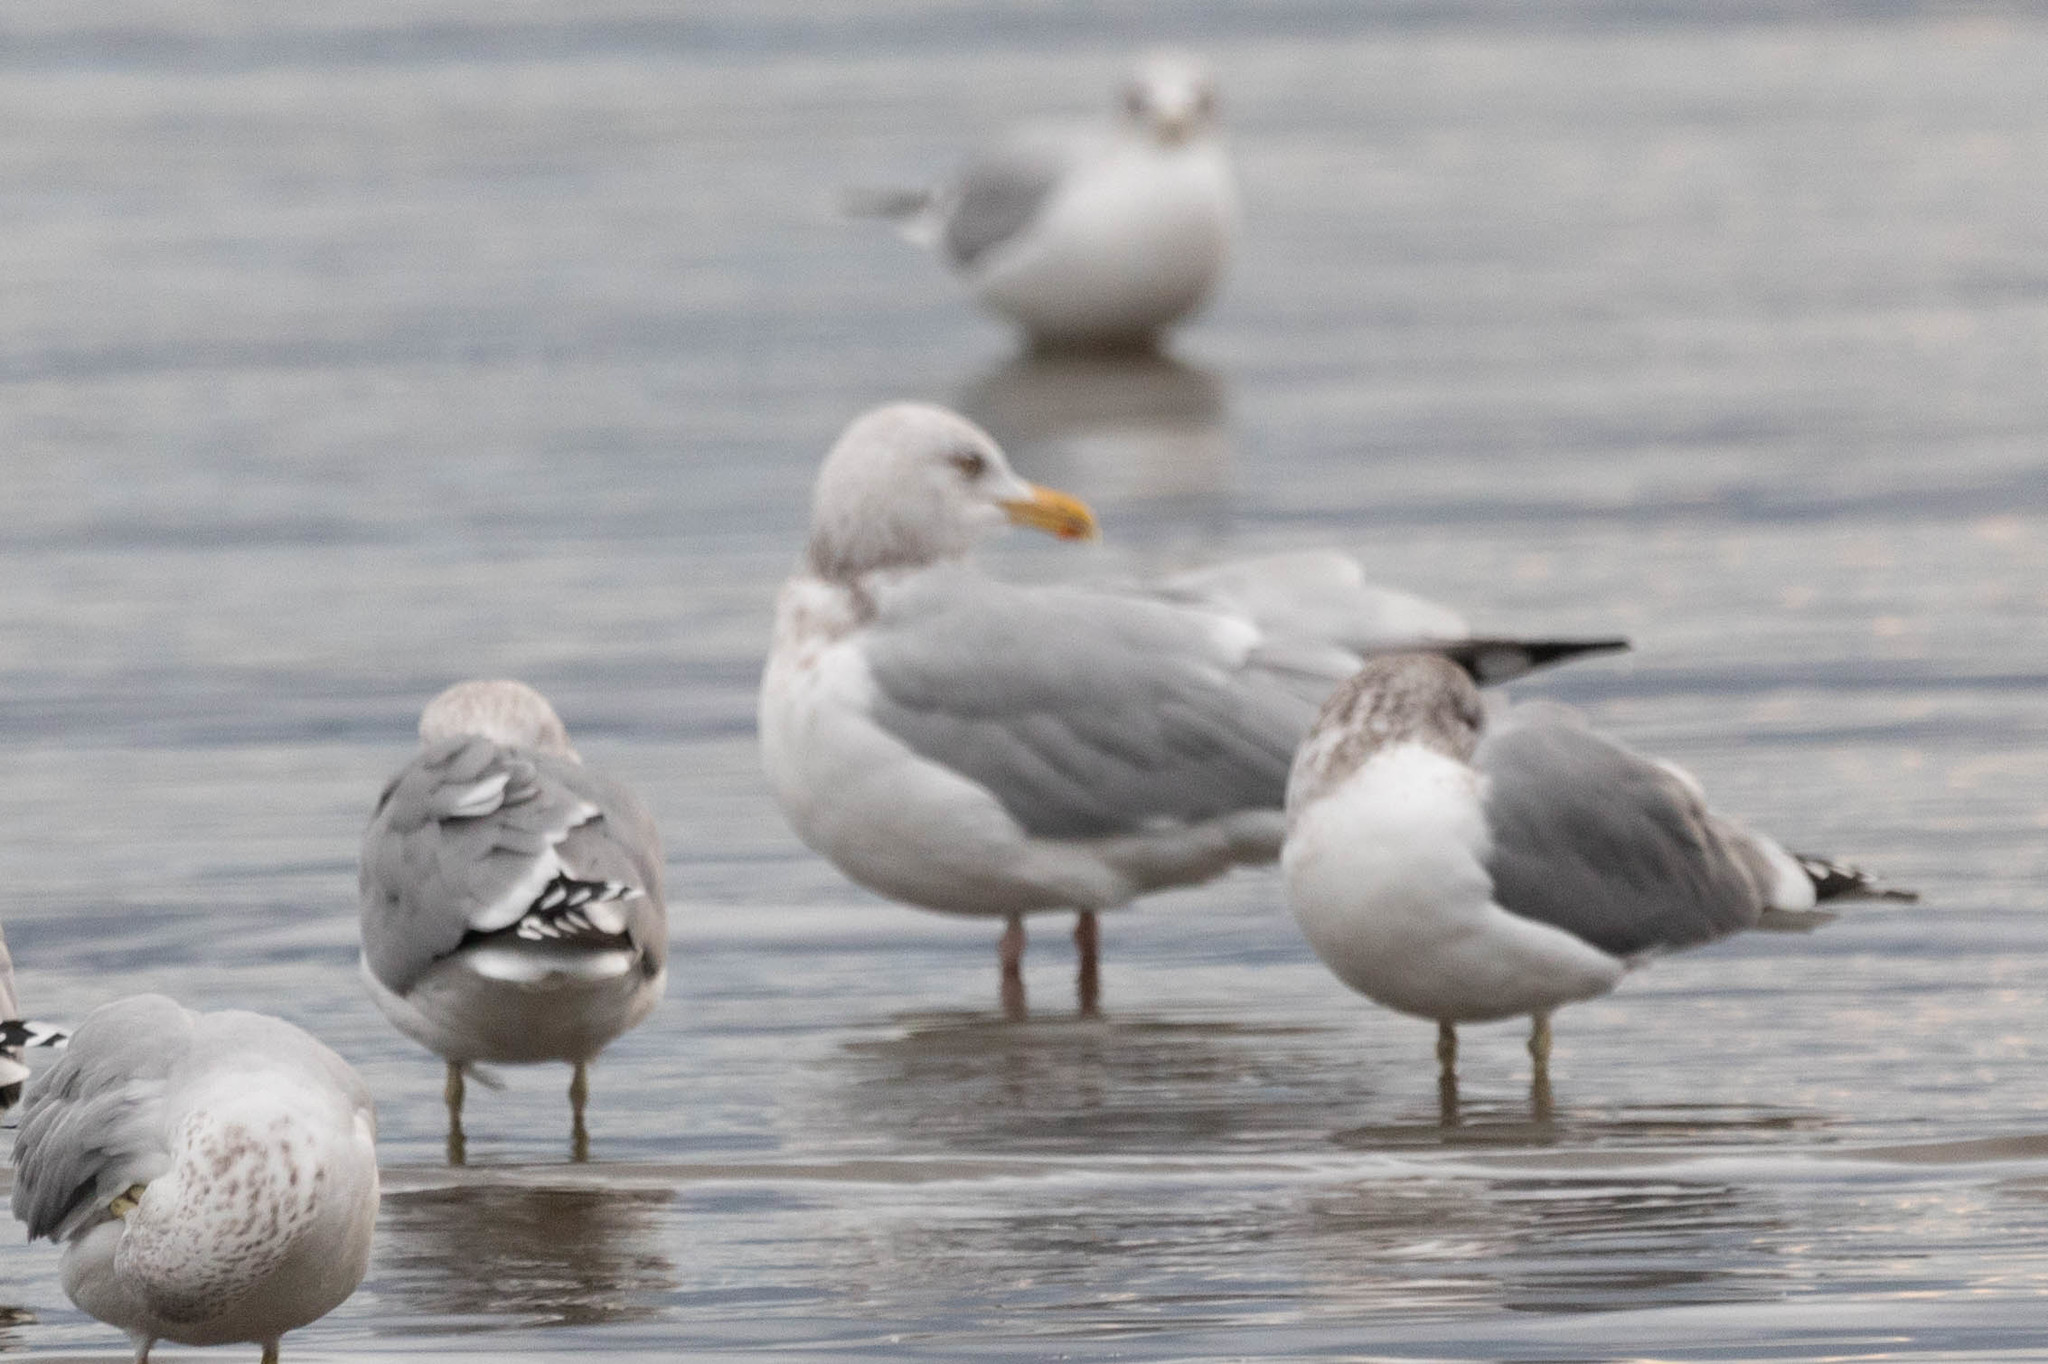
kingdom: Animalia
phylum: Chordata
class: Aves
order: Charadriiformes
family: Laridae
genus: Larus
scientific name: Larus argentatus
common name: Herring gull
